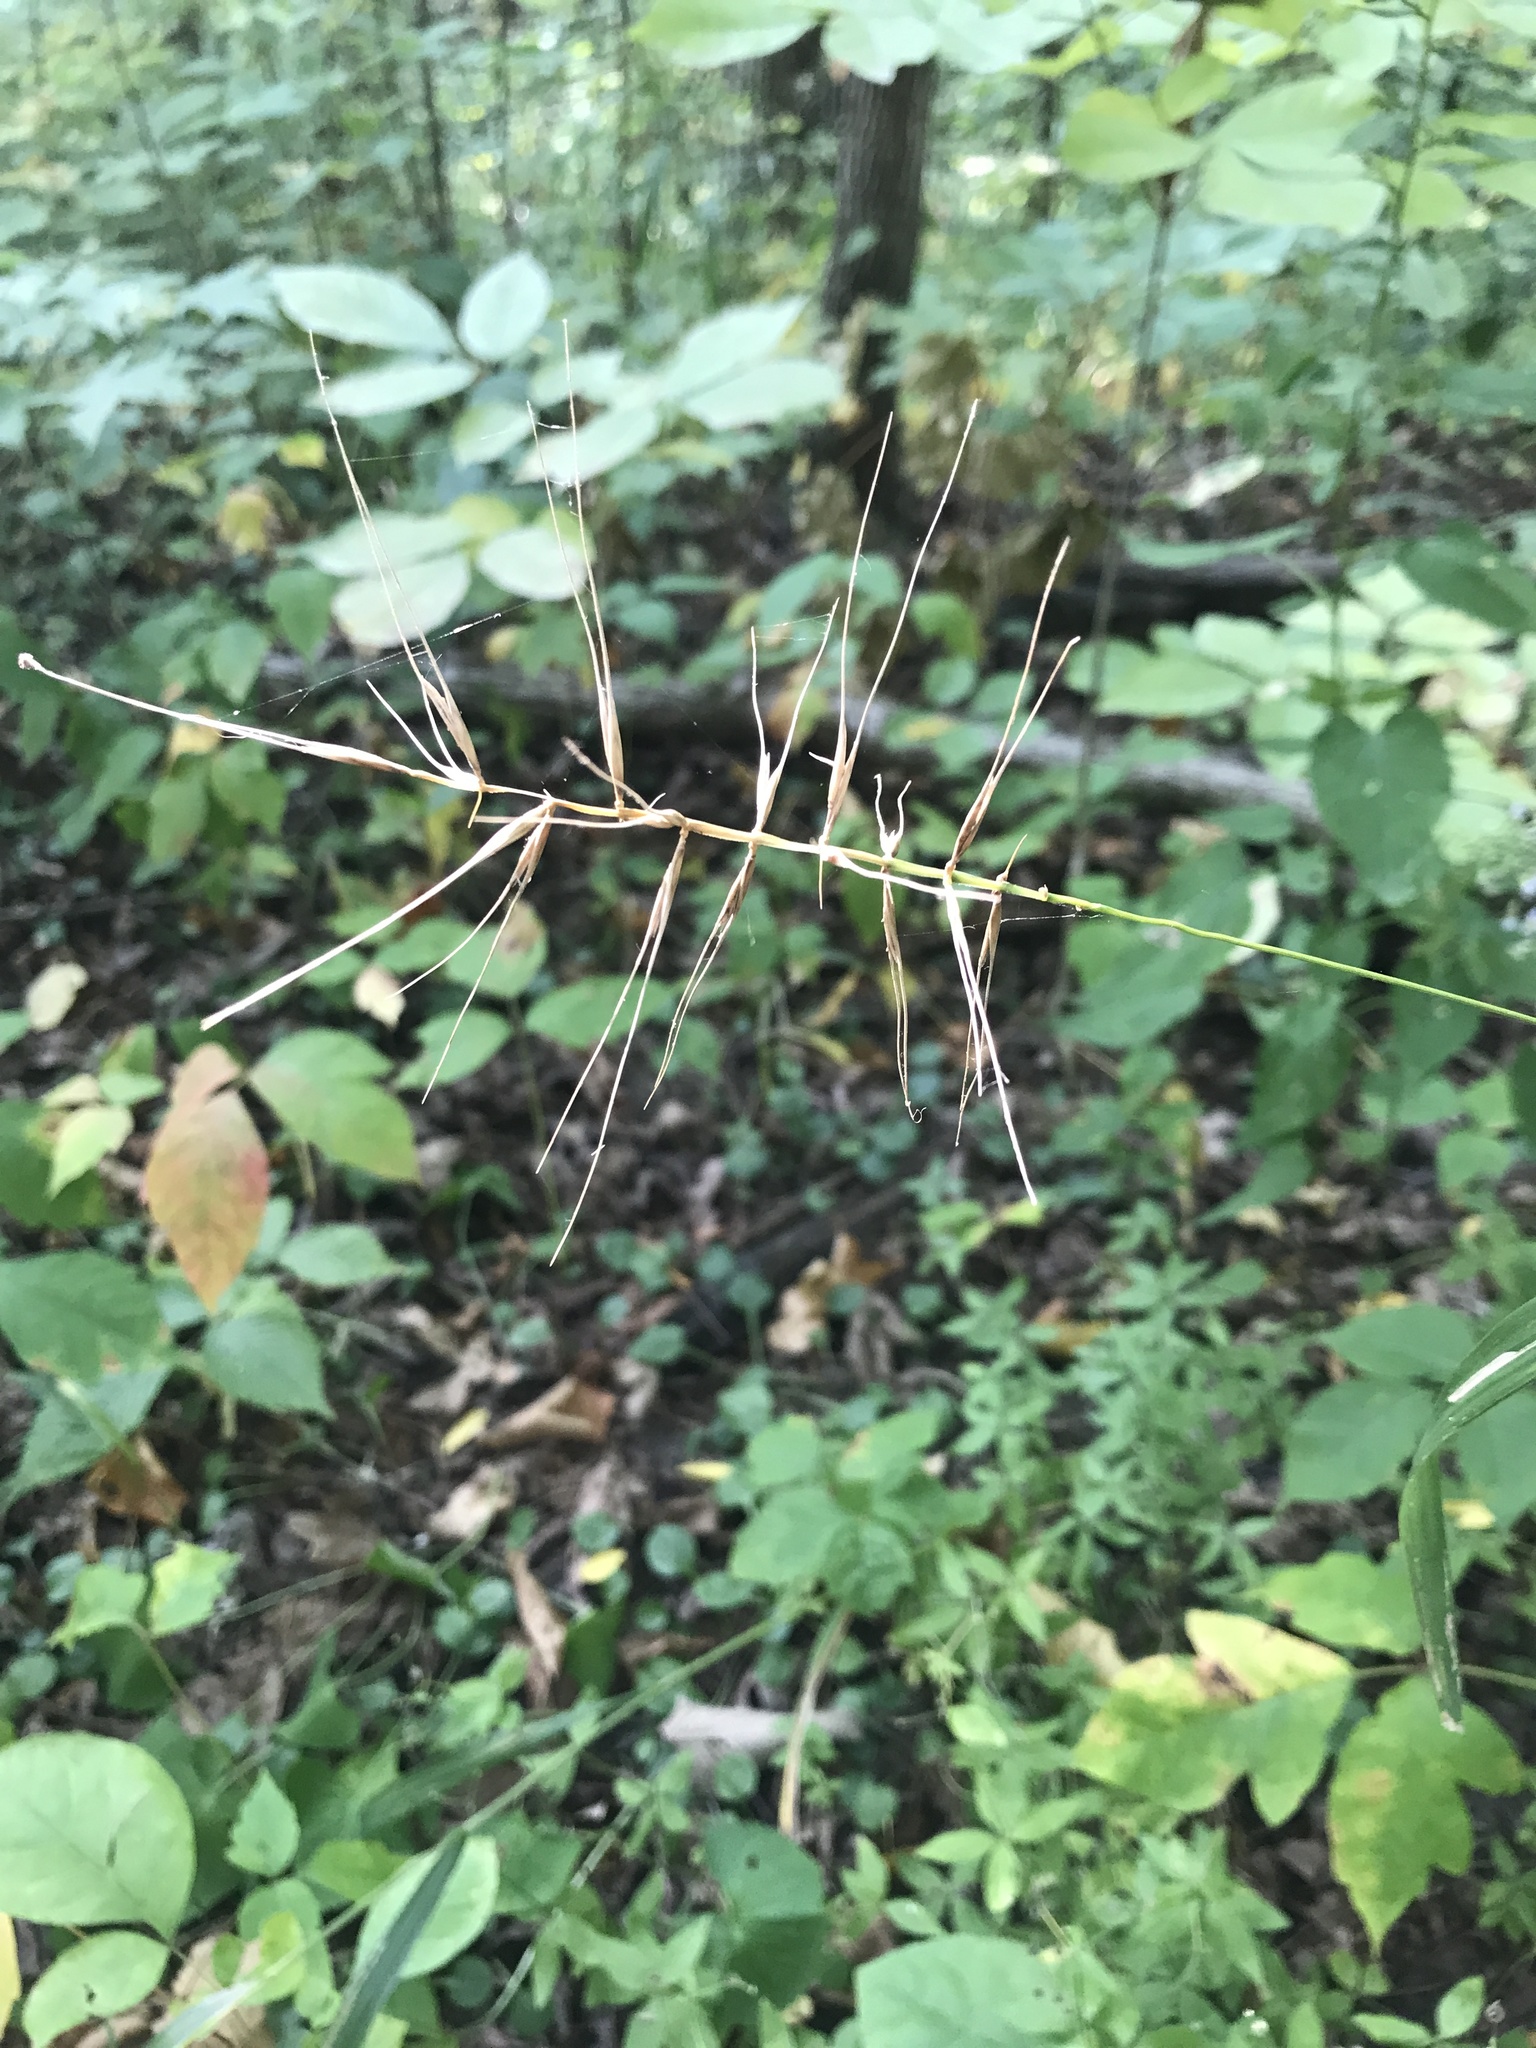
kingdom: Plantae
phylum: Tracheophyta
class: Liliopsida
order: Poales
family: Poaceae
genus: Elymus
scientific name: Elymus hystrix
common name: Bottlebrush grass
